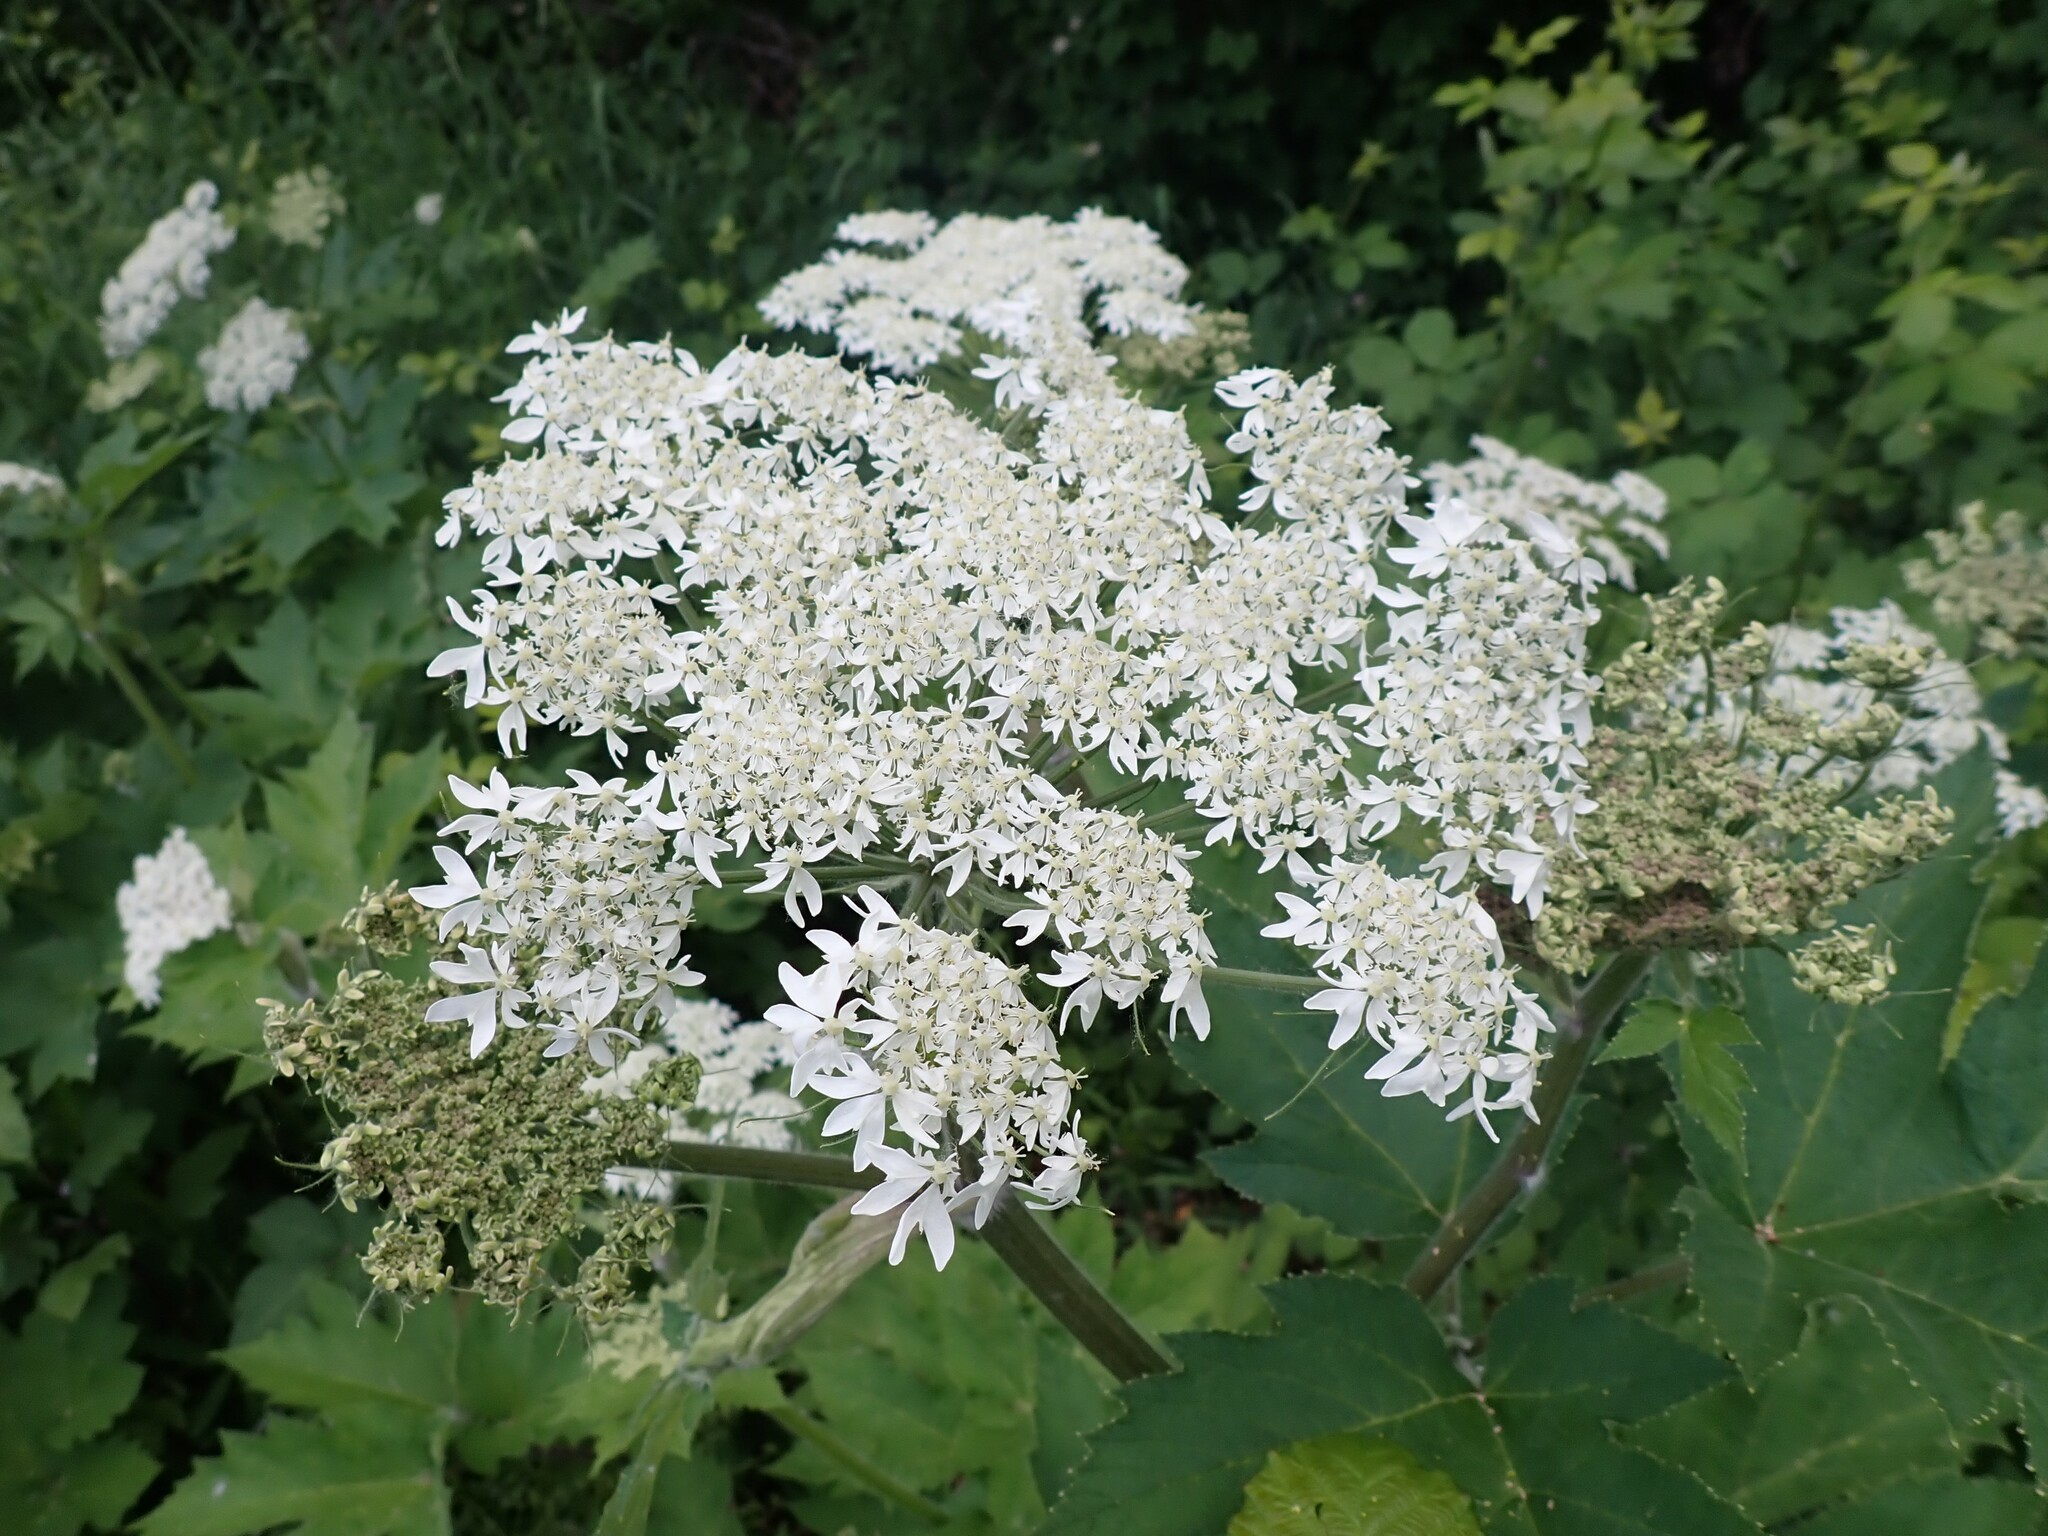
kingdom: Plantae
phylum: Tracheophyta
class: Magnoliopsida
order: Apiales
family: Apiaceae
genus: Heracleum
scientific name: Heracleum maximum
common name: American cow parsnip
